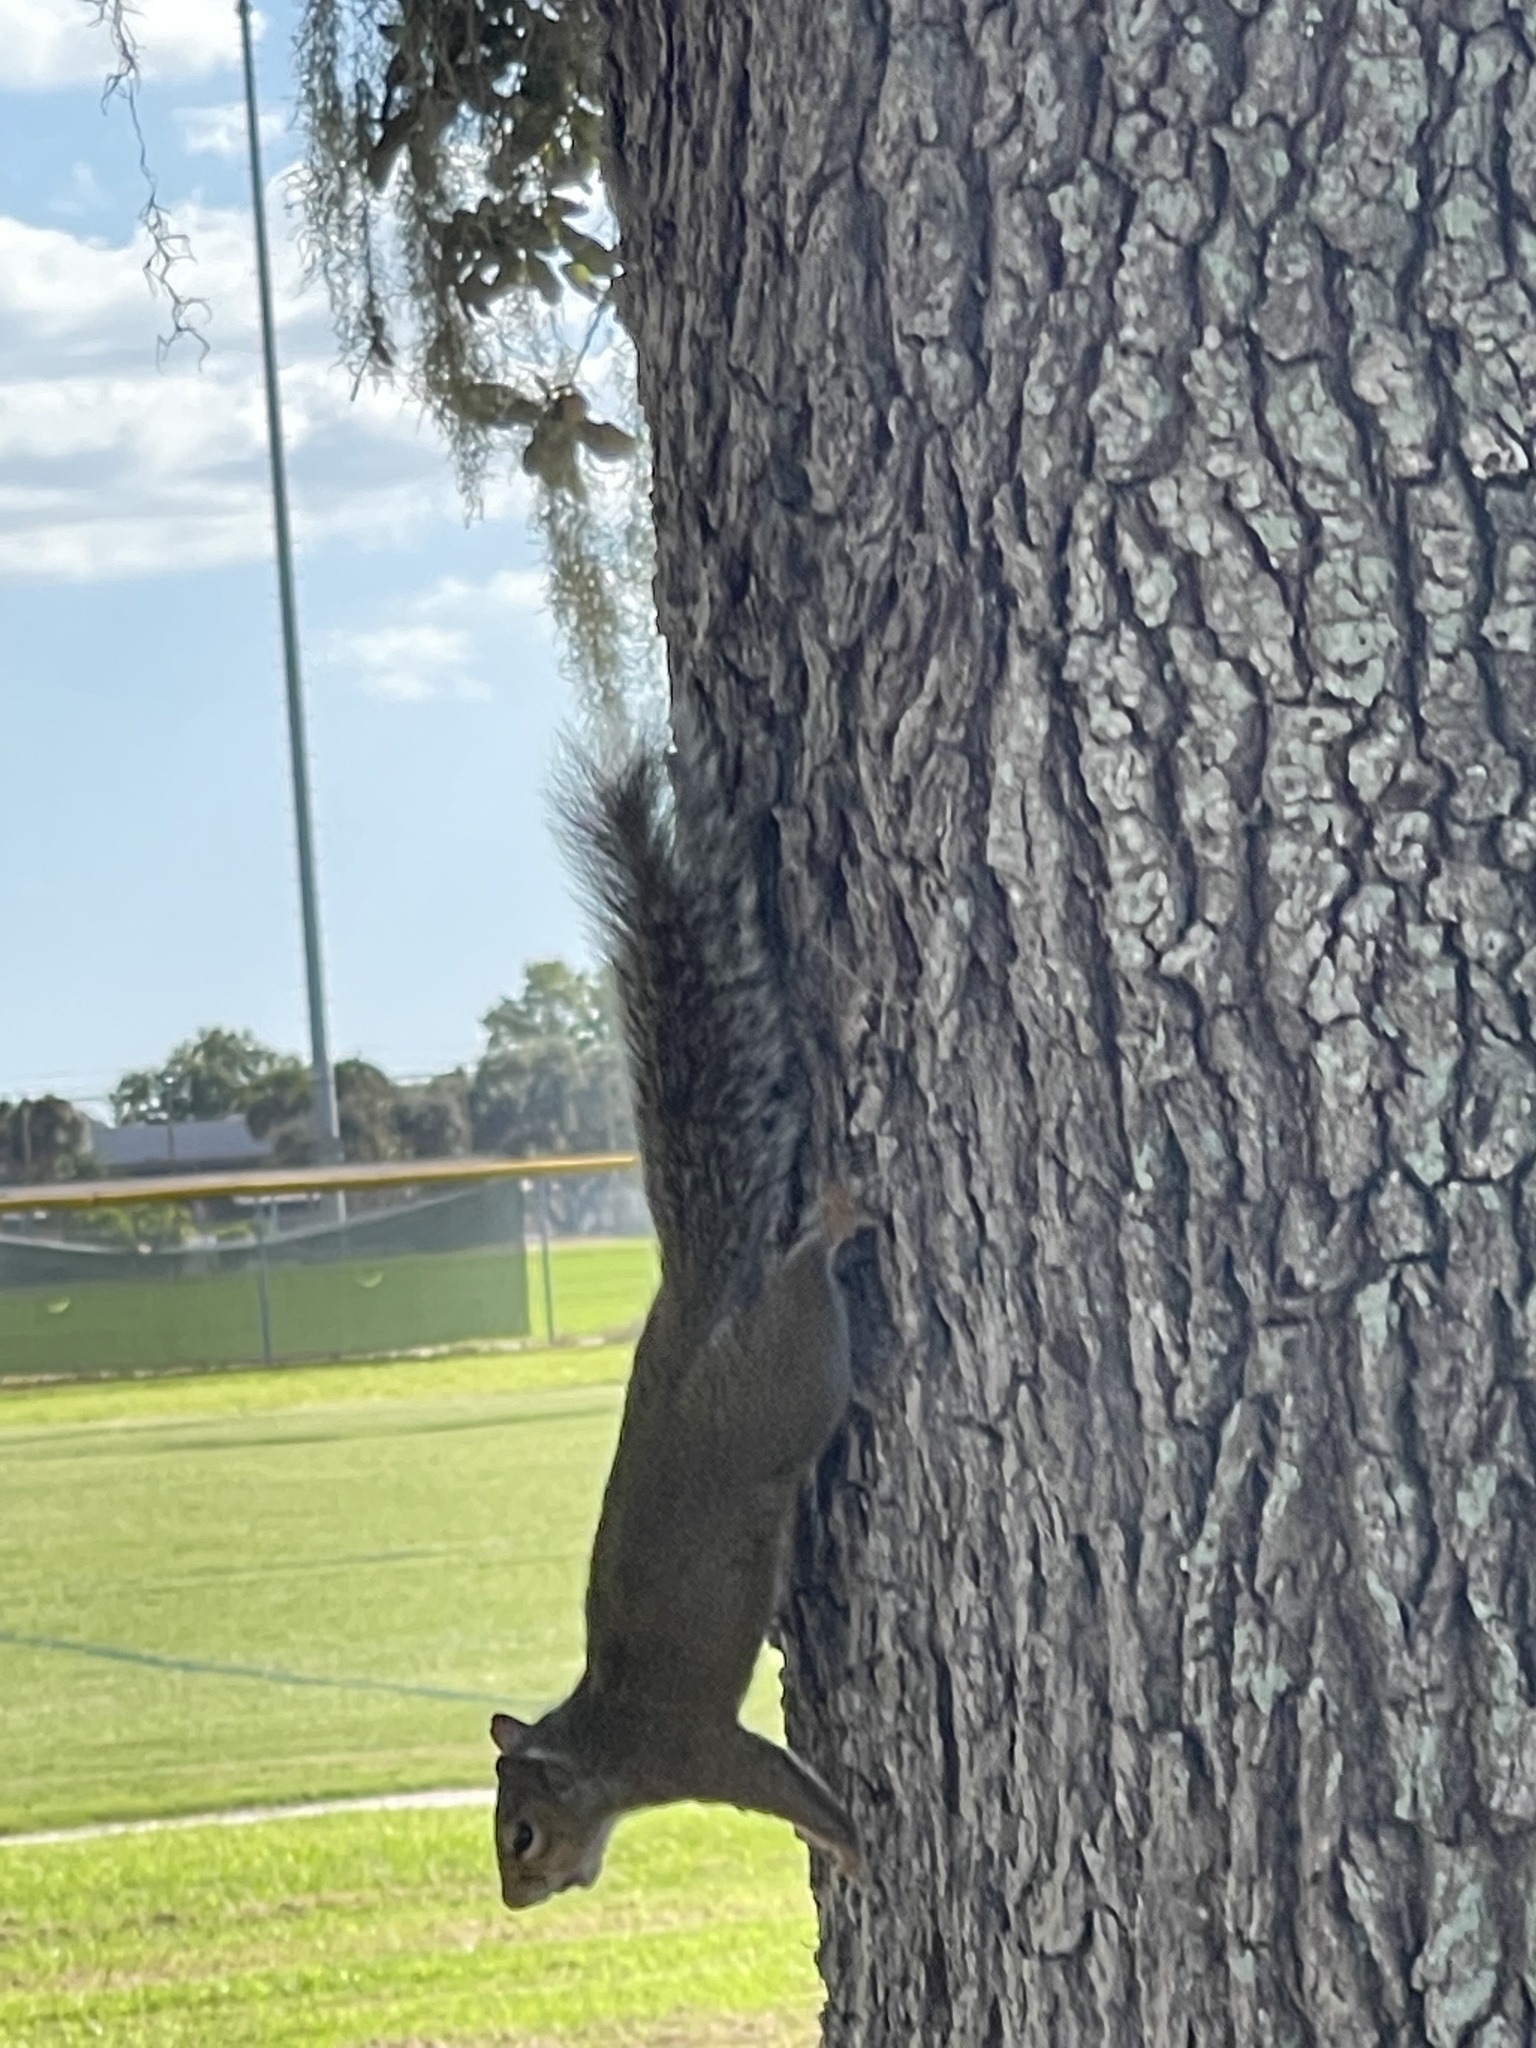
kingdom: Animalia
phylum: Chordata
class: Mammalia
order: Rodentia
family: Sciuridae
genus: Sciurus
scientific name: Sciurus carolinensis
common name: Eastern gray squirrel
